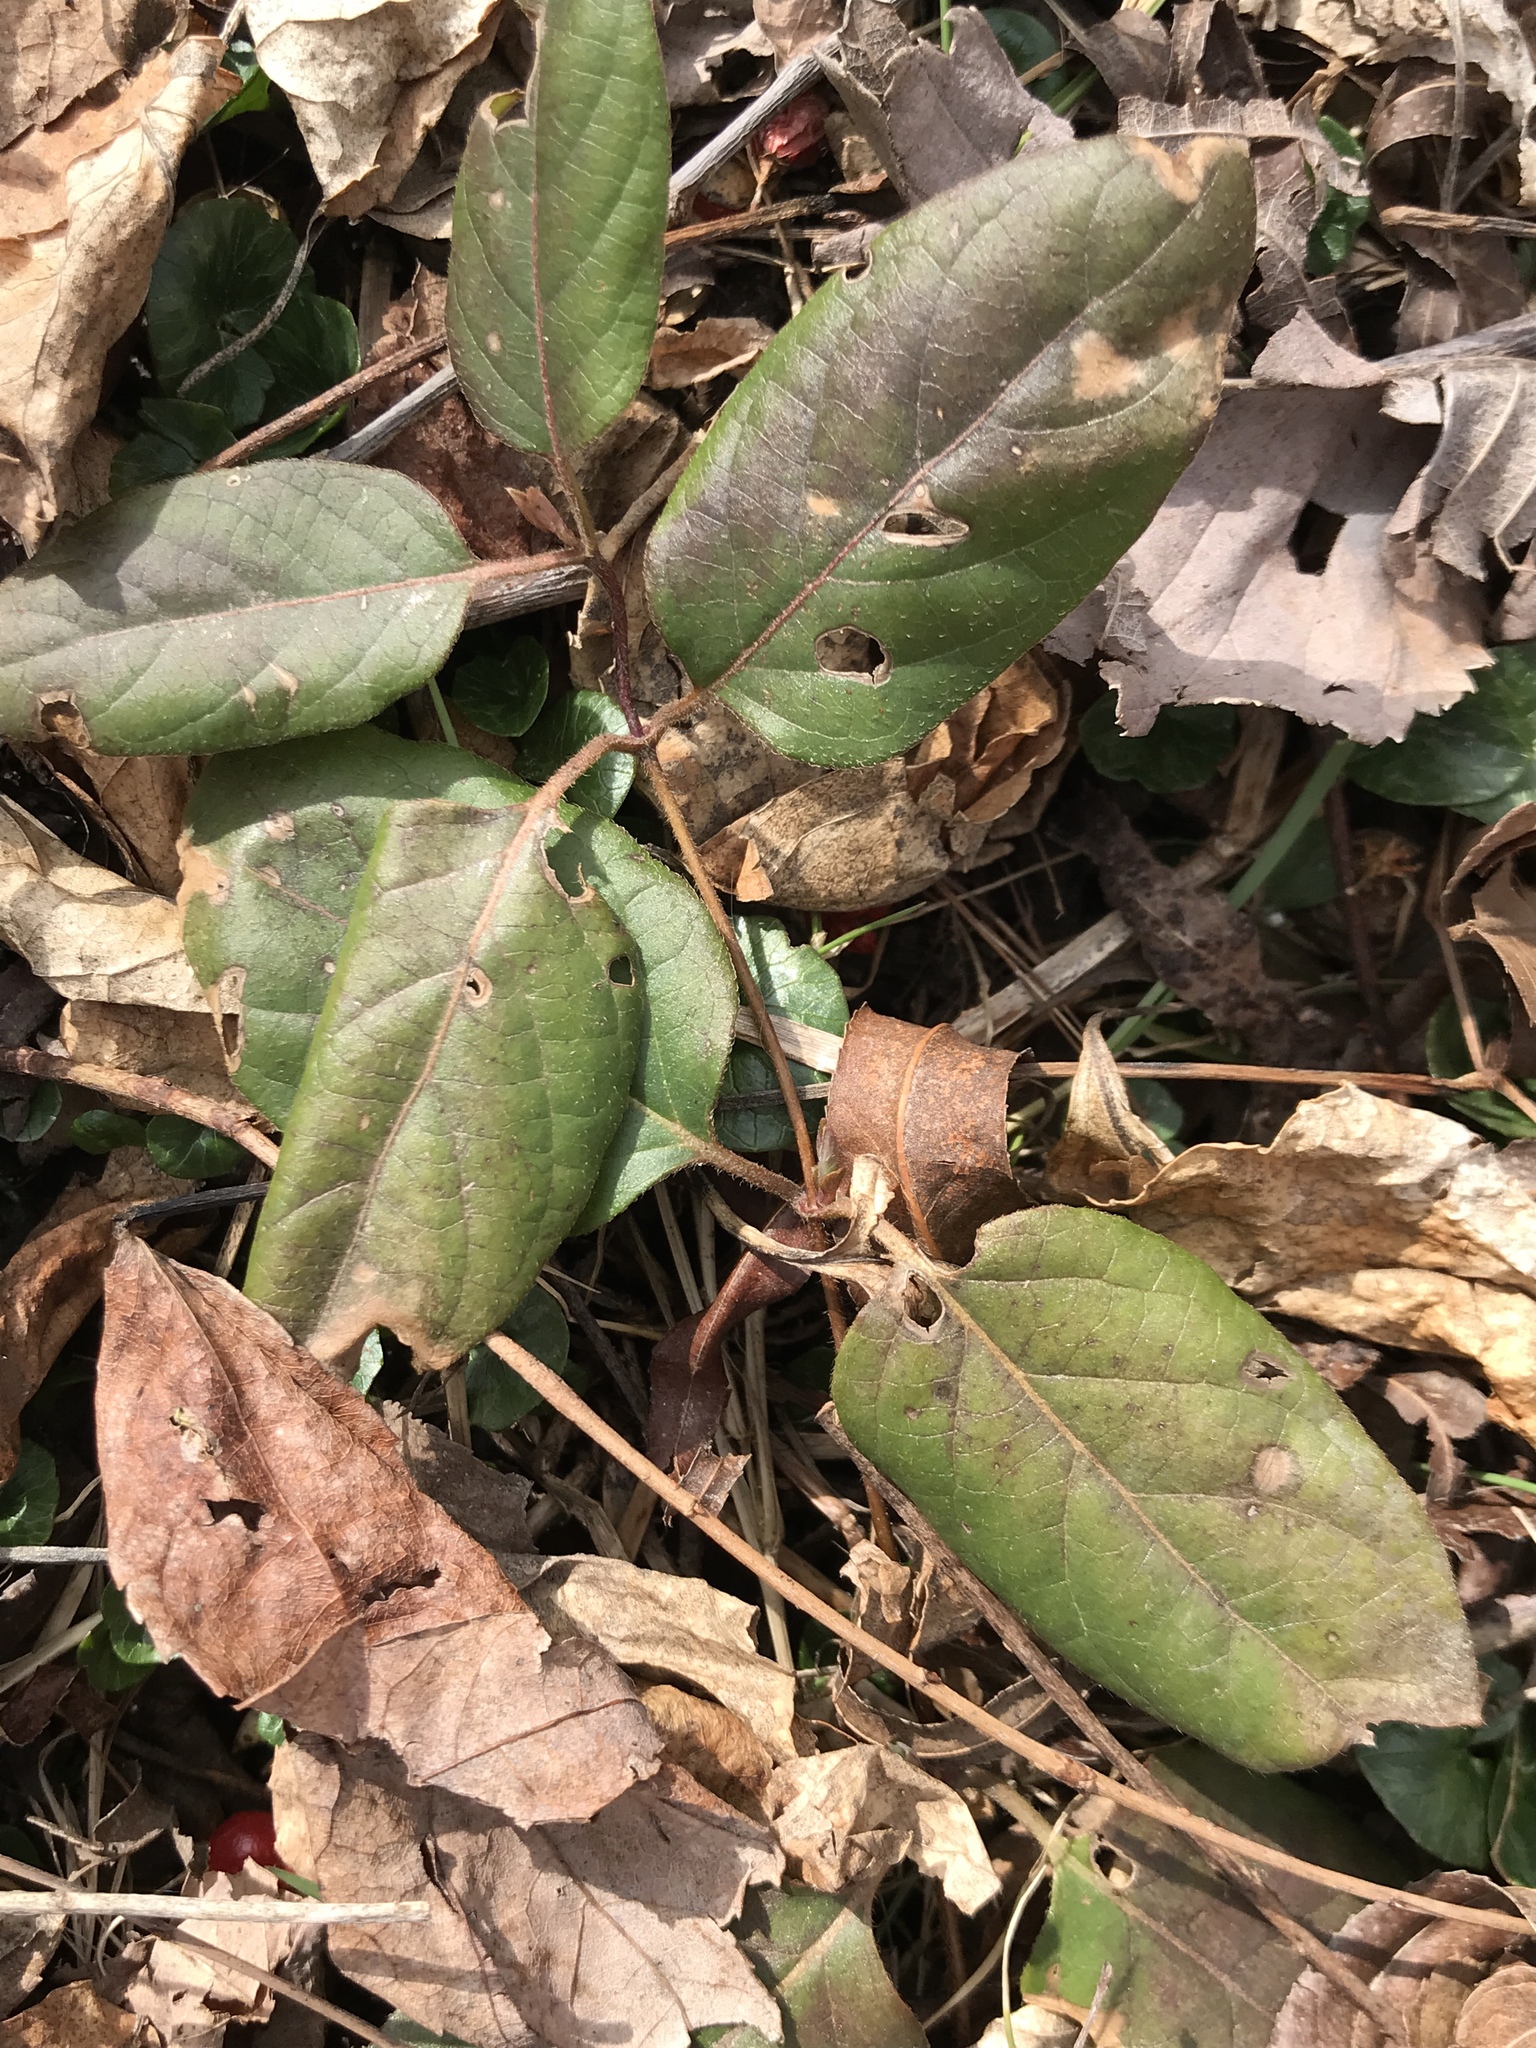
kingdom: Plantae
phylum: Tracheophyta
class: Magnoliopsida
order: Dipsacales
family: Caprifoliaceae
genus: Lonicera
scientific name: Lonicera japonica
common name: Japanese honeysuckle
